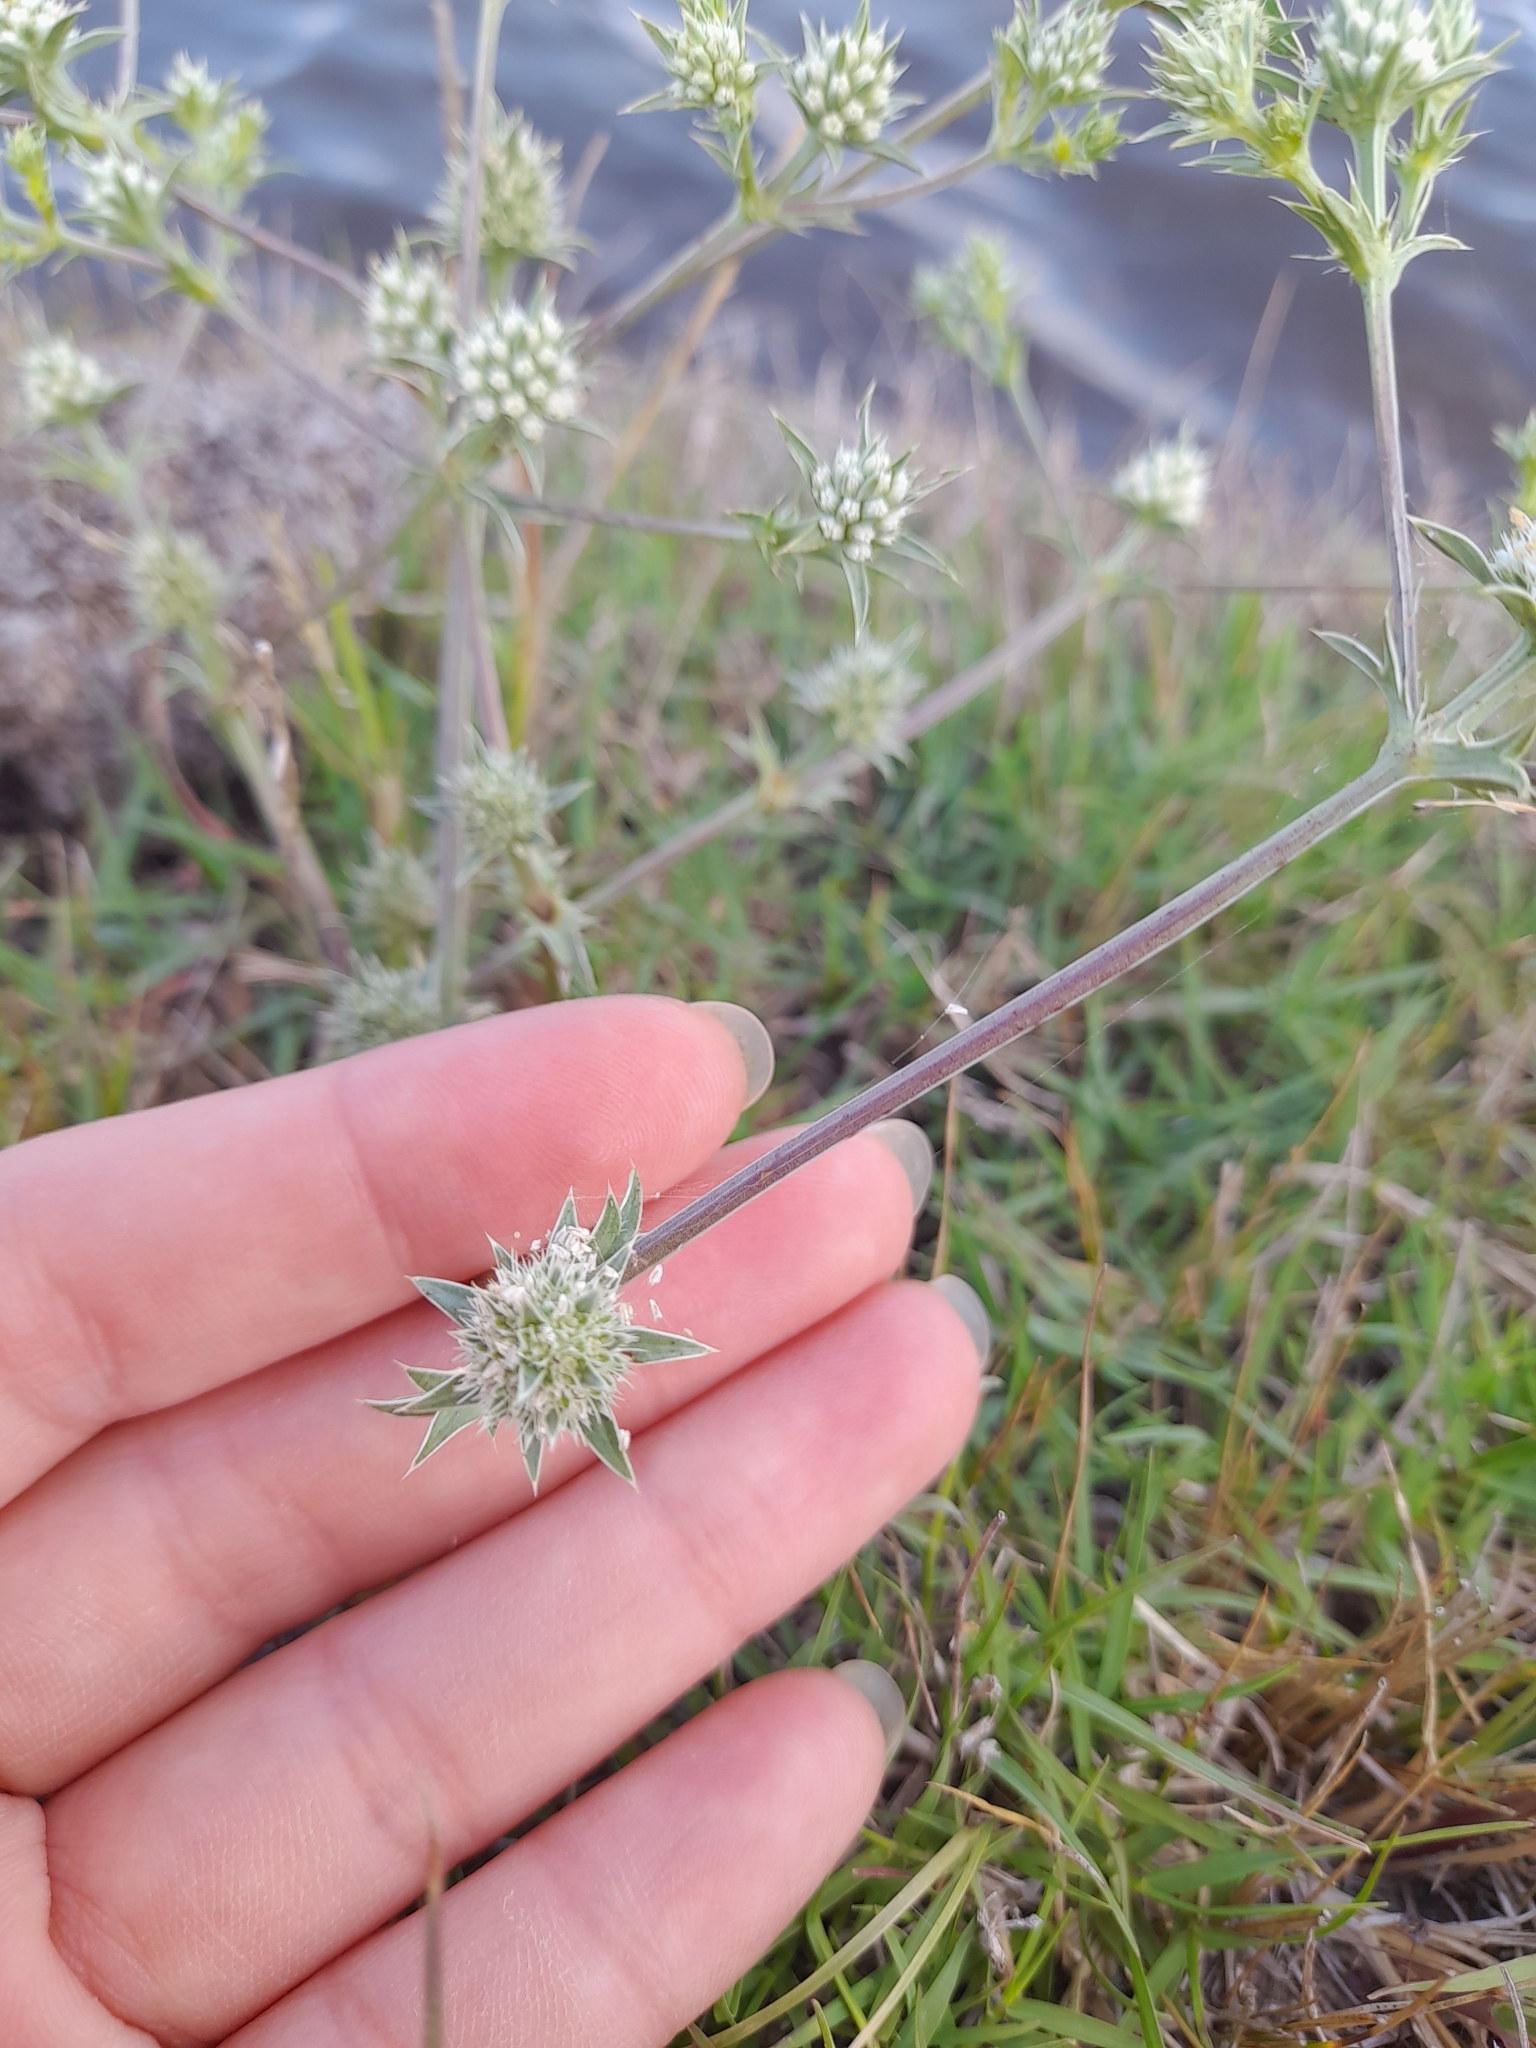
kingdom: Plantae
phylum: Tracheophyta
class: Magnoliopsida
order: Apiales
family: Apiaceae
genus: Eryngium
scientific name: Eryngium nudicaule
